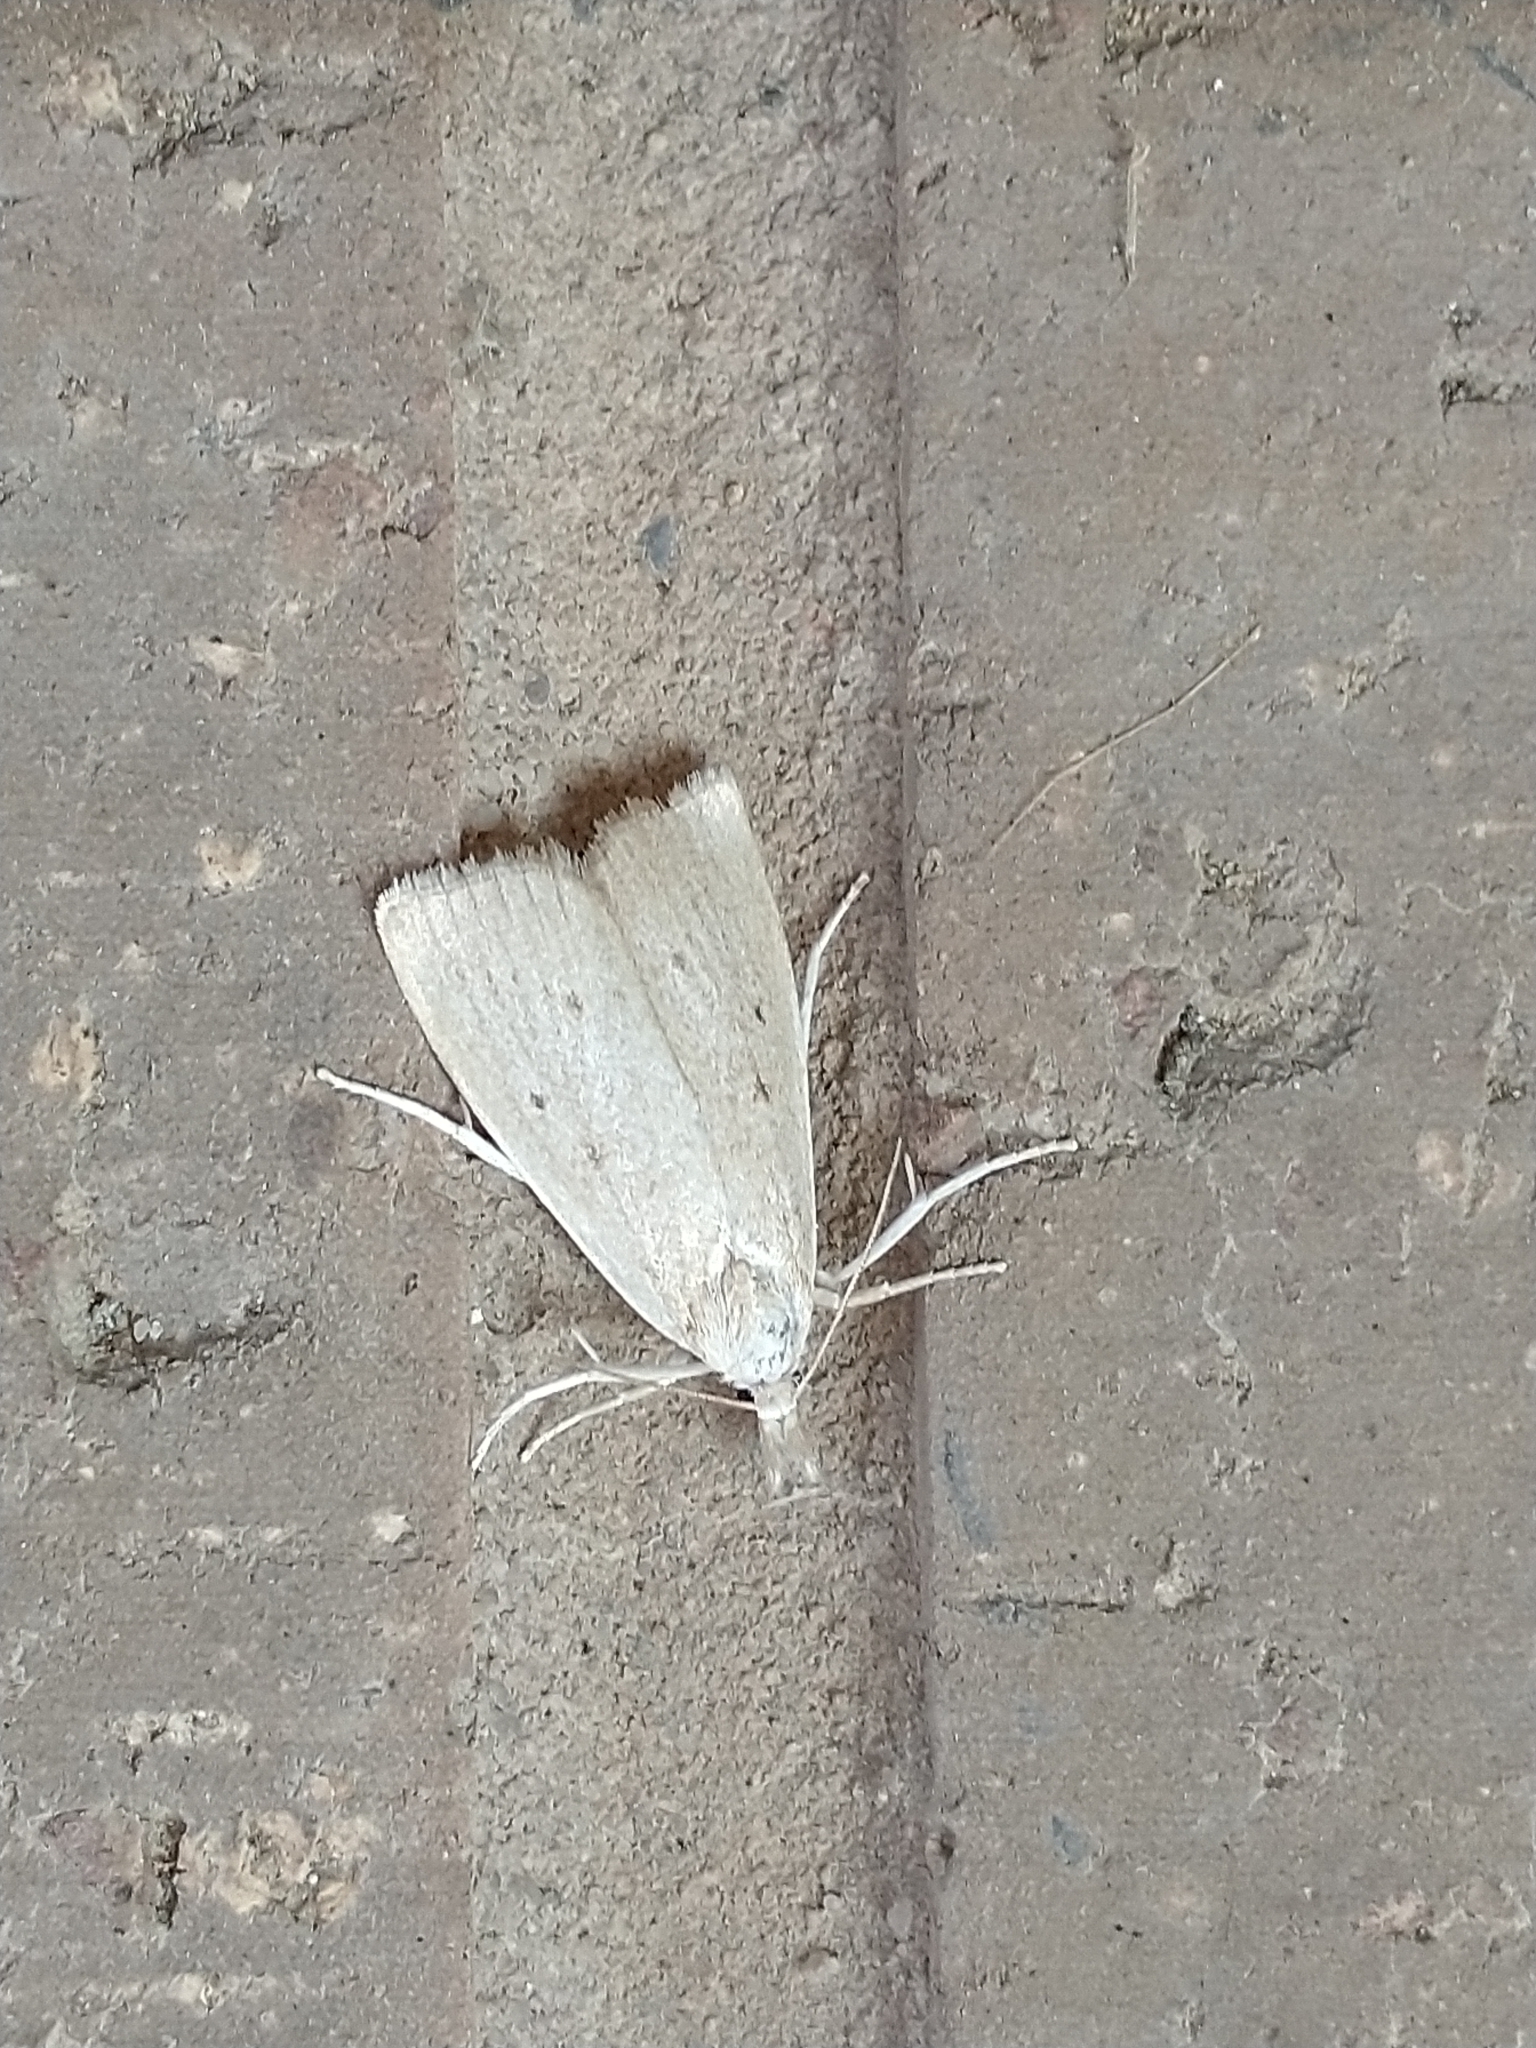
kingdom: Animalia
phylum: Arthropoda
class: Insecta
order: Lepidoptera
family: Crambidae
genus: Calamotropha
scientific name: Calamotropha paludella
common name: Bulrush veneer
